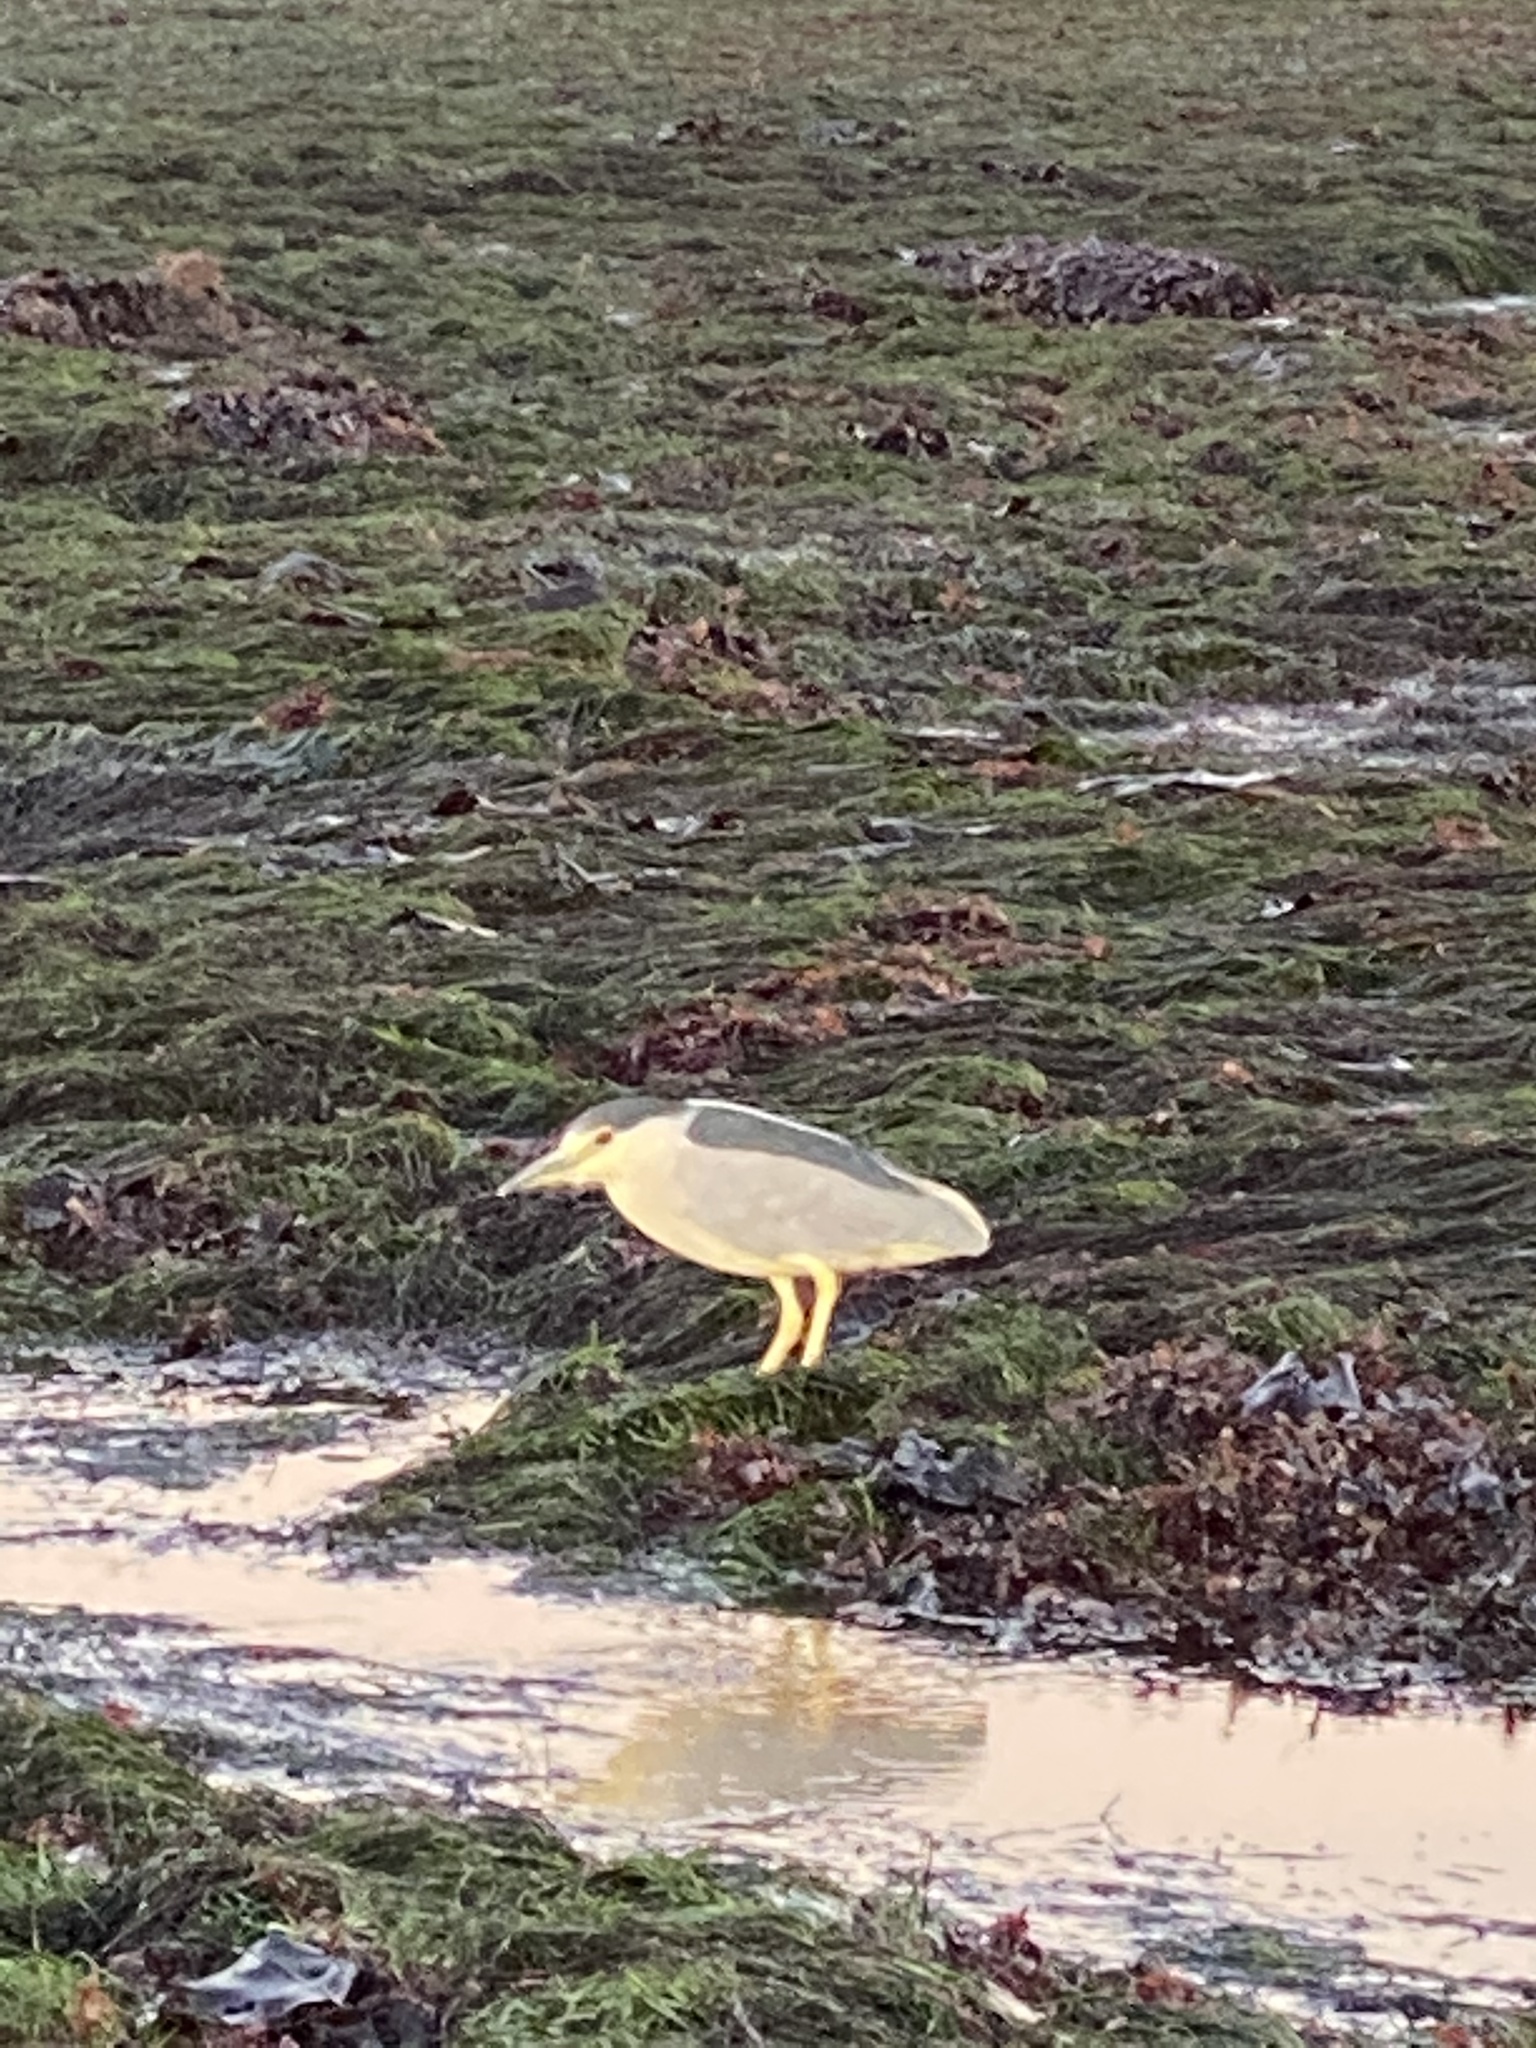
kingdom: Animalia
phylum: Chordata
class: Aves
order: Pelecaniformes
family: Ardeidae
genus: Nycticorax
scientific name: Nycticorax nycticorax
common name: Black-crowned night heron
